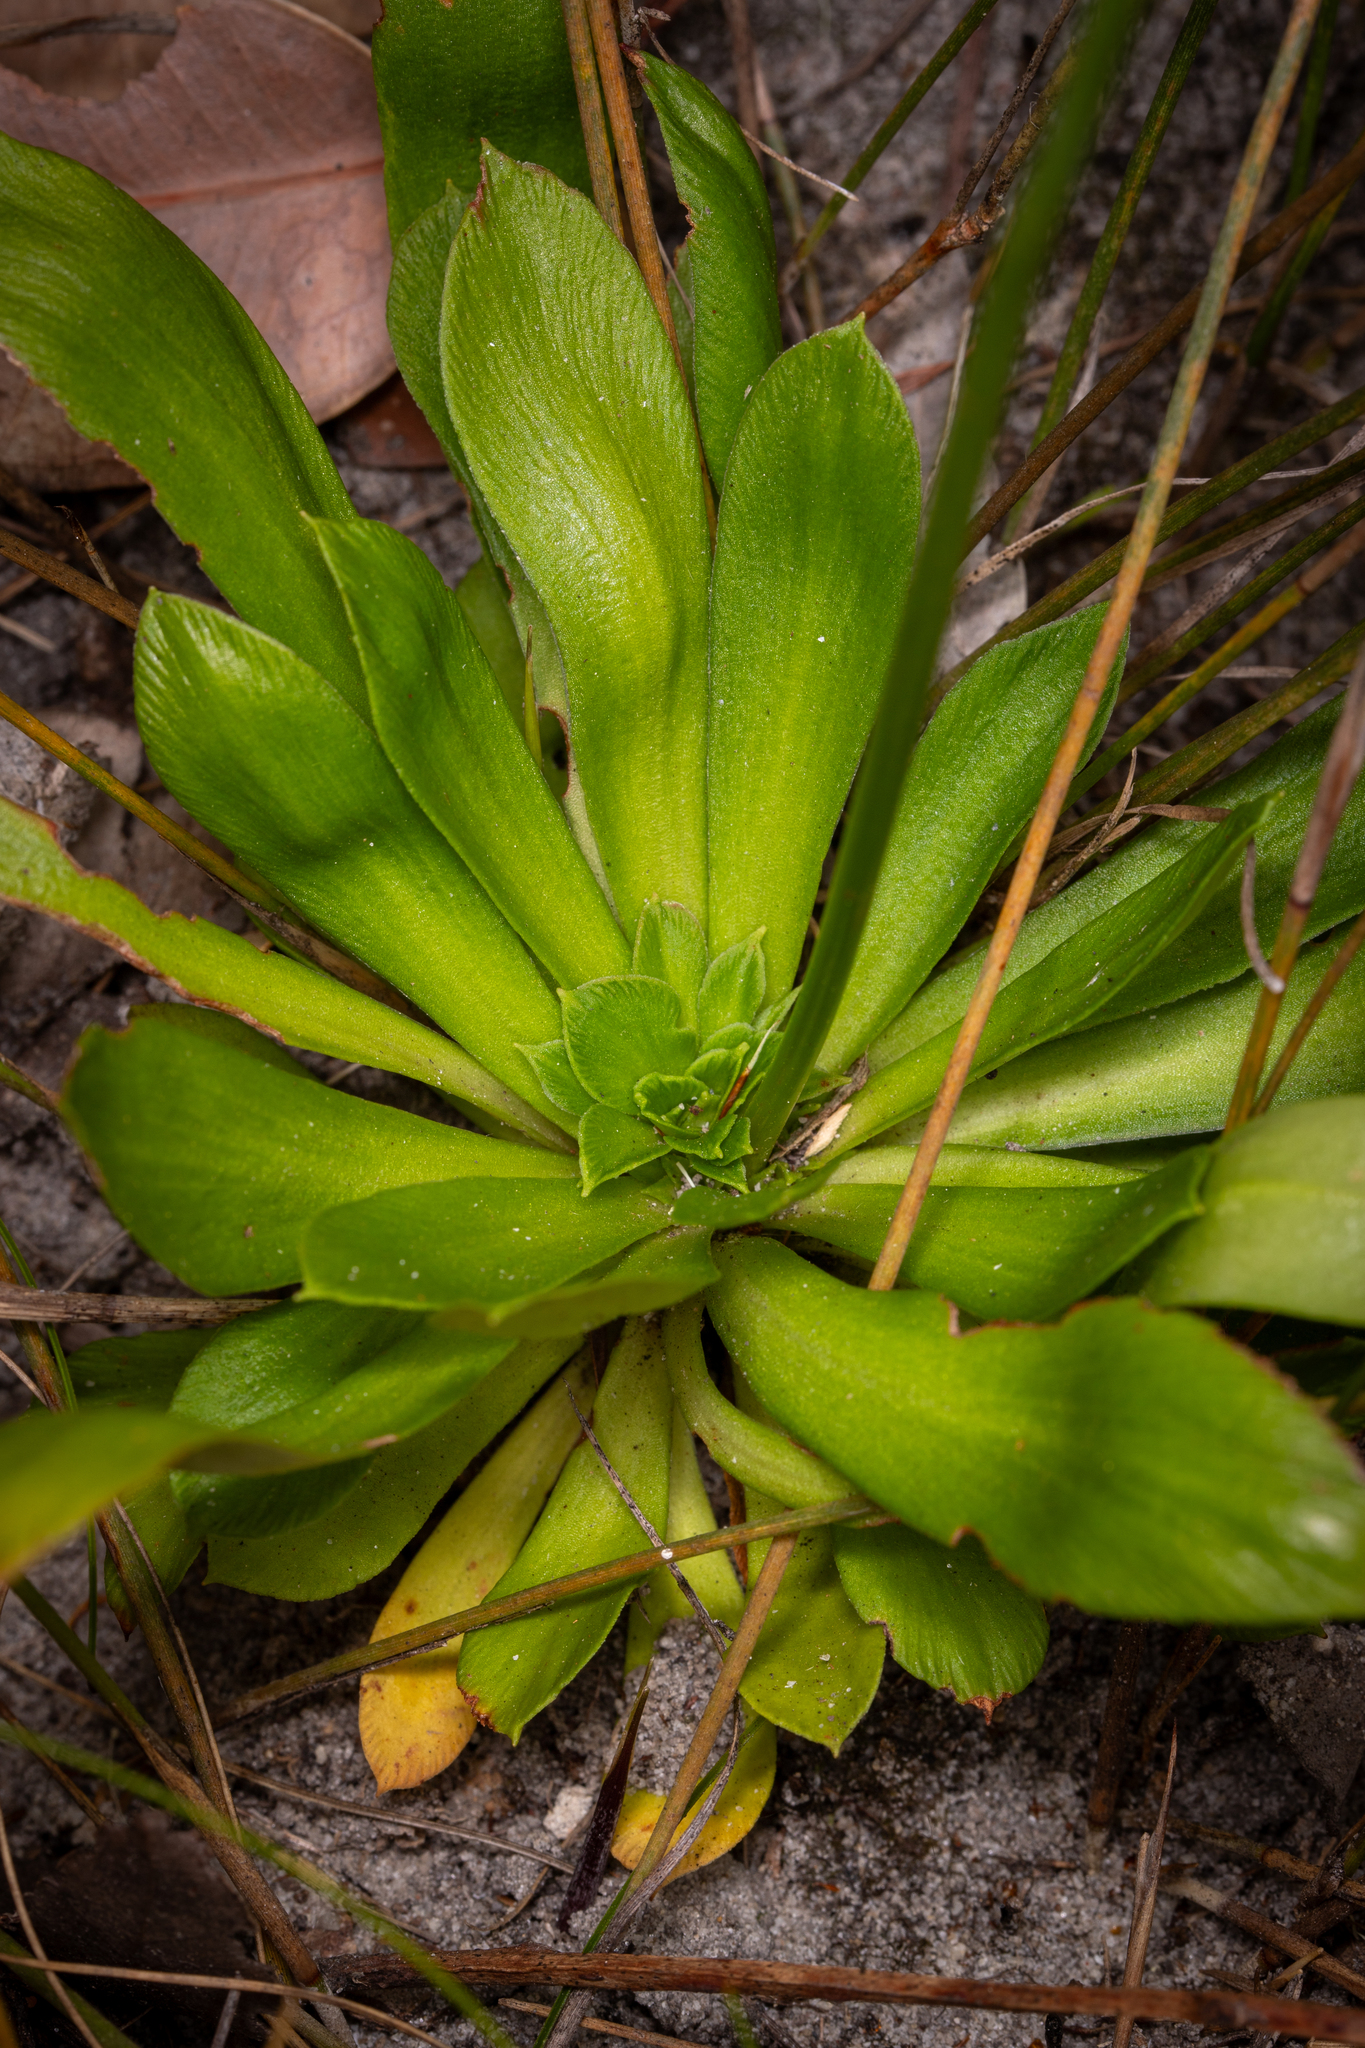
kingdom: Plantae
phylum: Tracheophyta
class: Magnoliopsida
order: Asterales
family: Stylidiaceae
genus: Stylidium
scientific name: Stylidium amoenum
